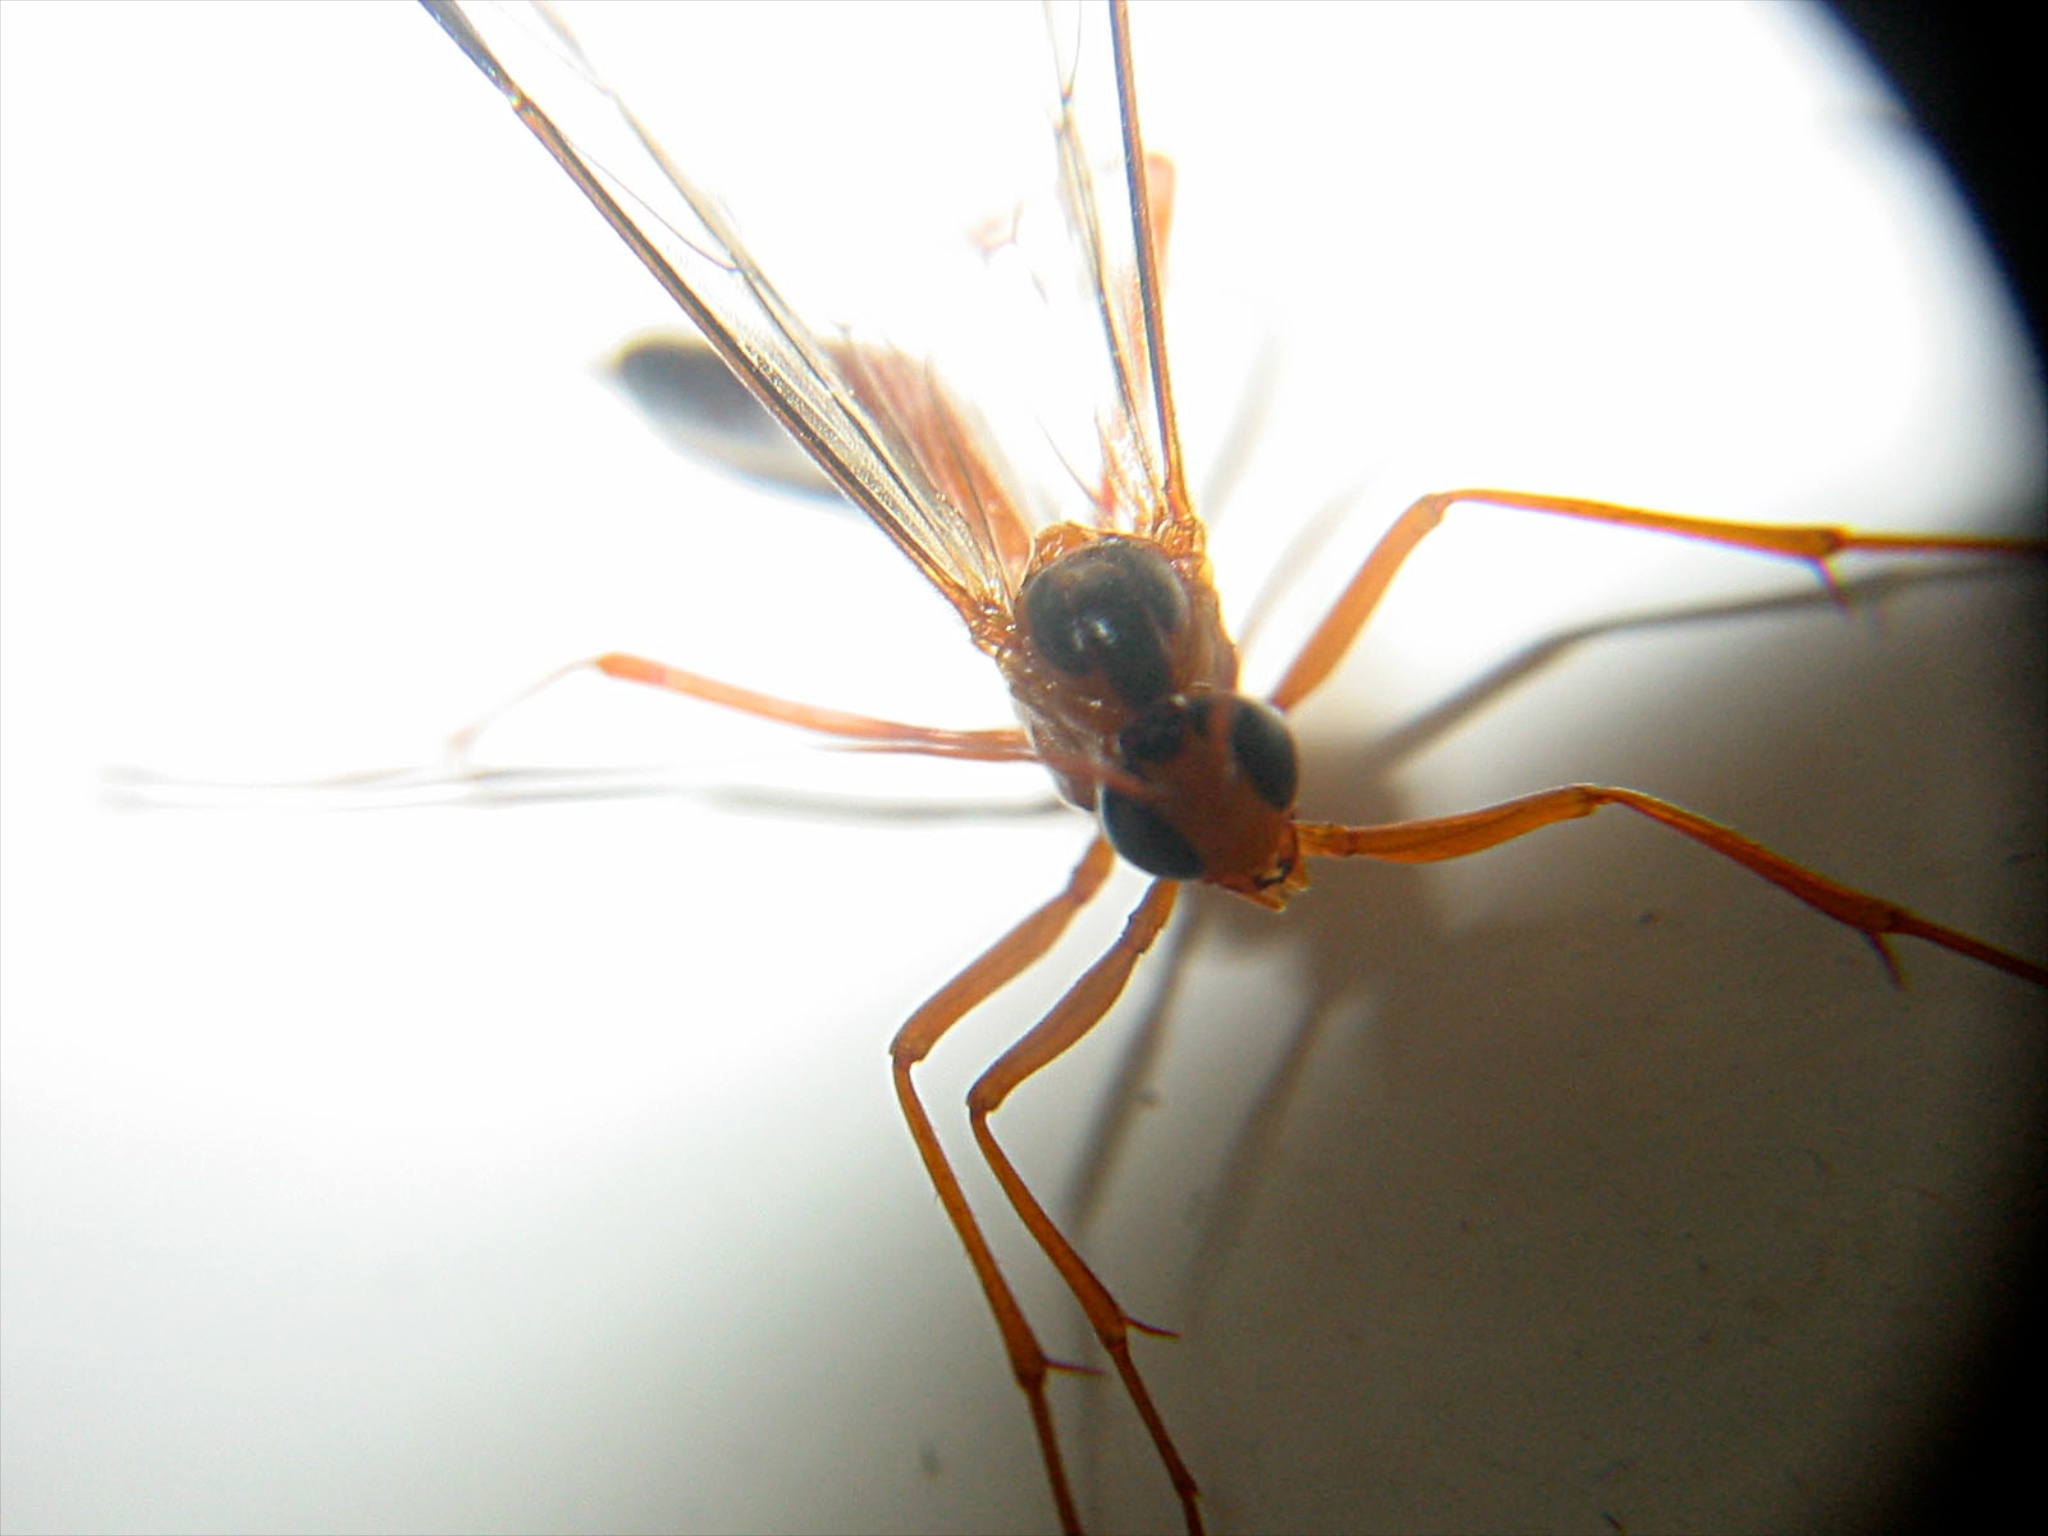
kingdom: Animalia
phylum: Arthropoda
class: Insecta
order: Hymenoptera
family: Ichneumonidae
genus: Netelia
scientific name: Netelia ephippiata
